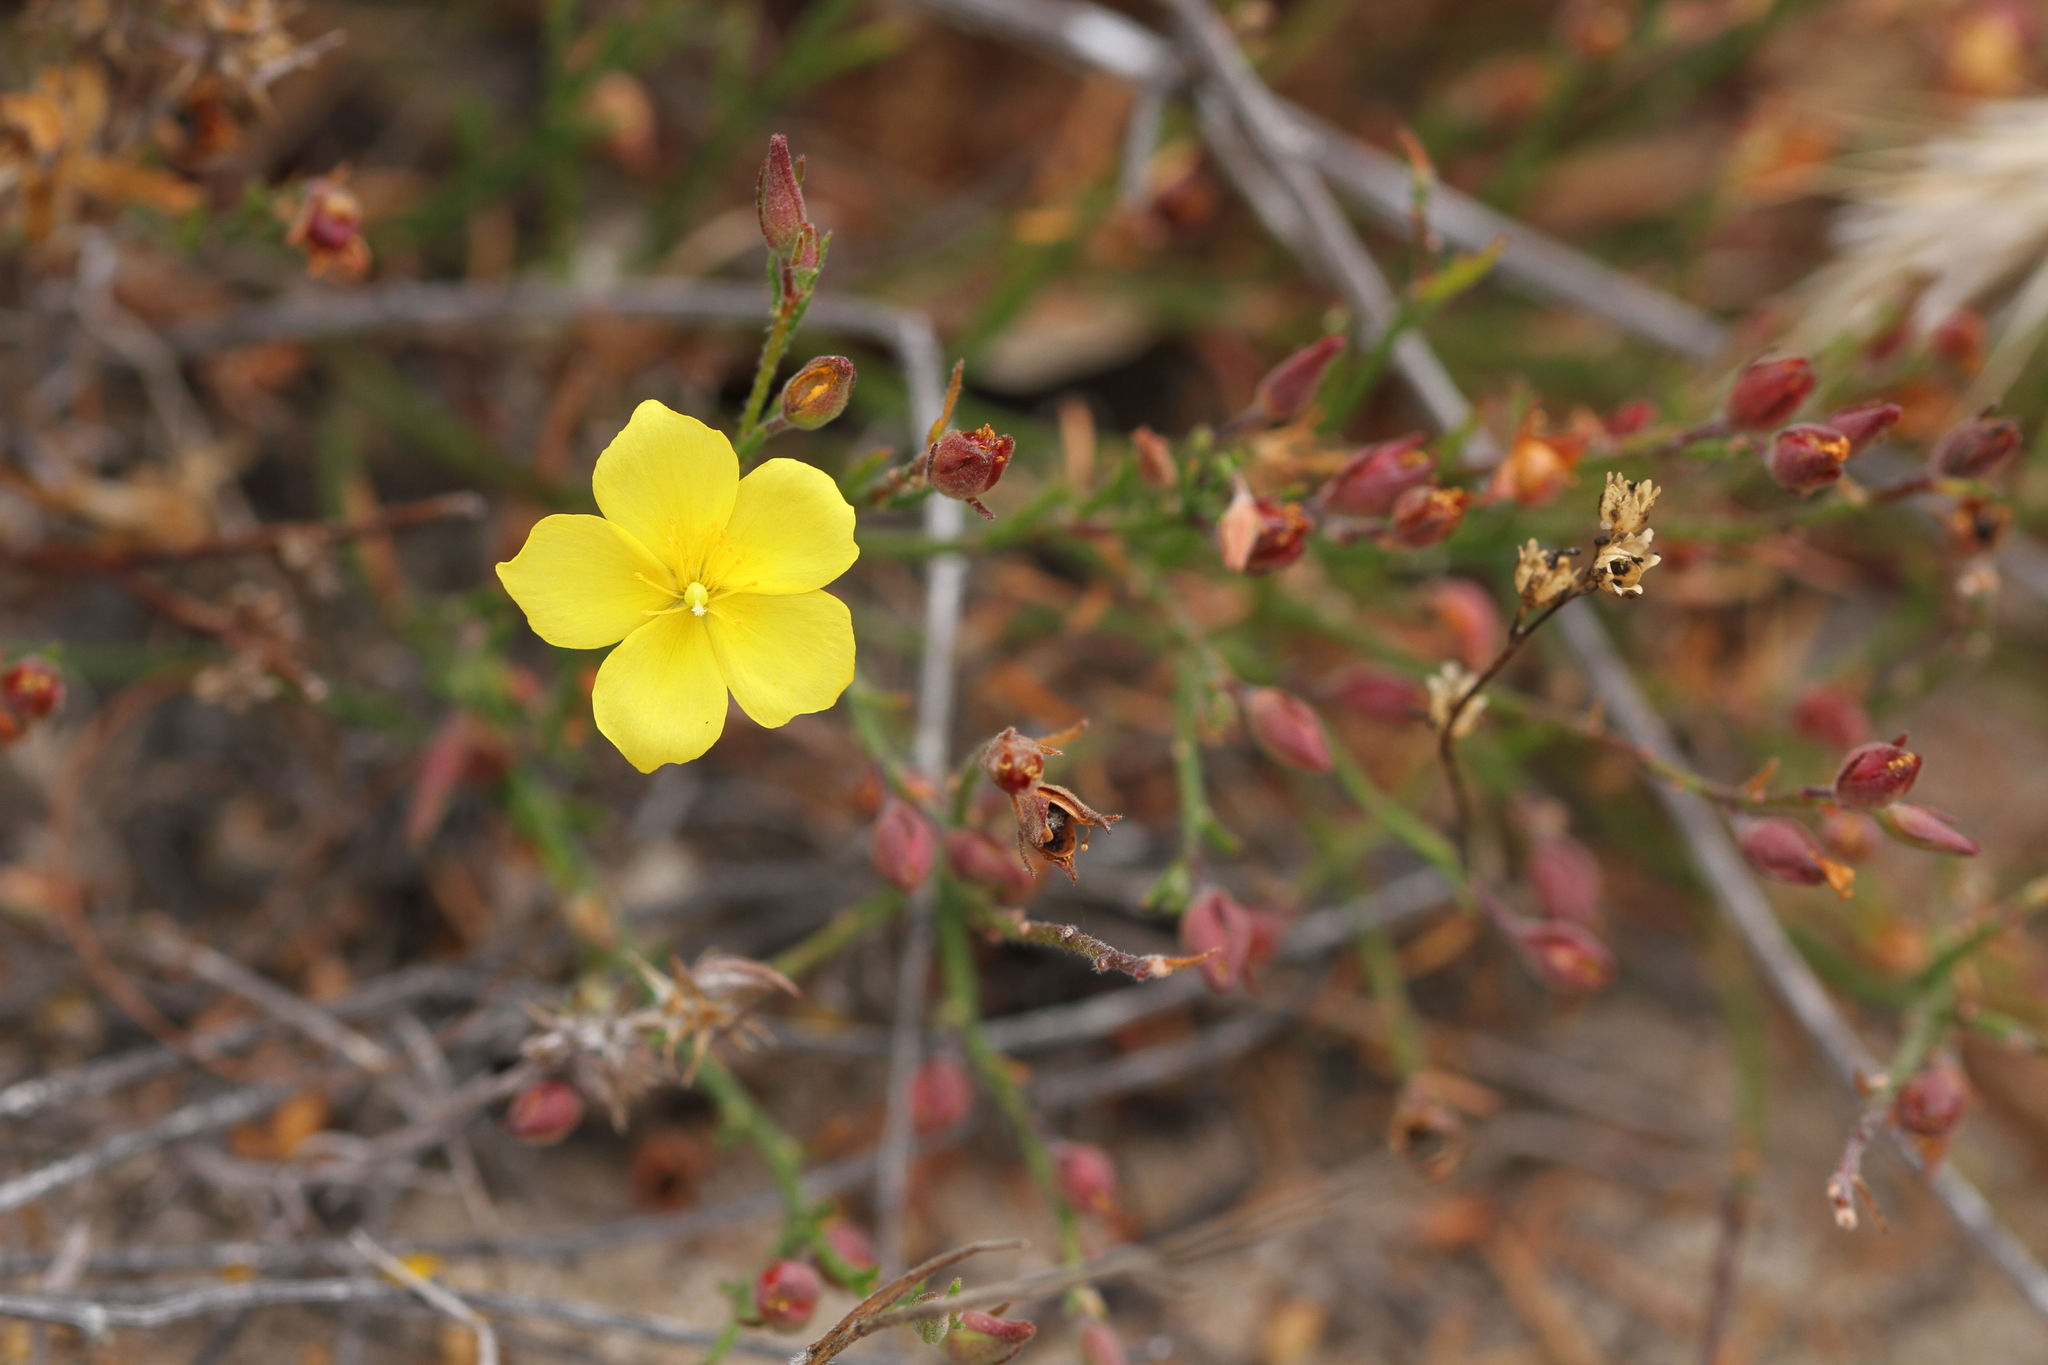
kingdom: Plantae
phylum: Tracheophyta
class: Magnoliopsida
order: Malvales
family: Cistaceae
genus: Crocanthemum
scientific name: Crocanthemum scoparium
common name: Broom-rose
